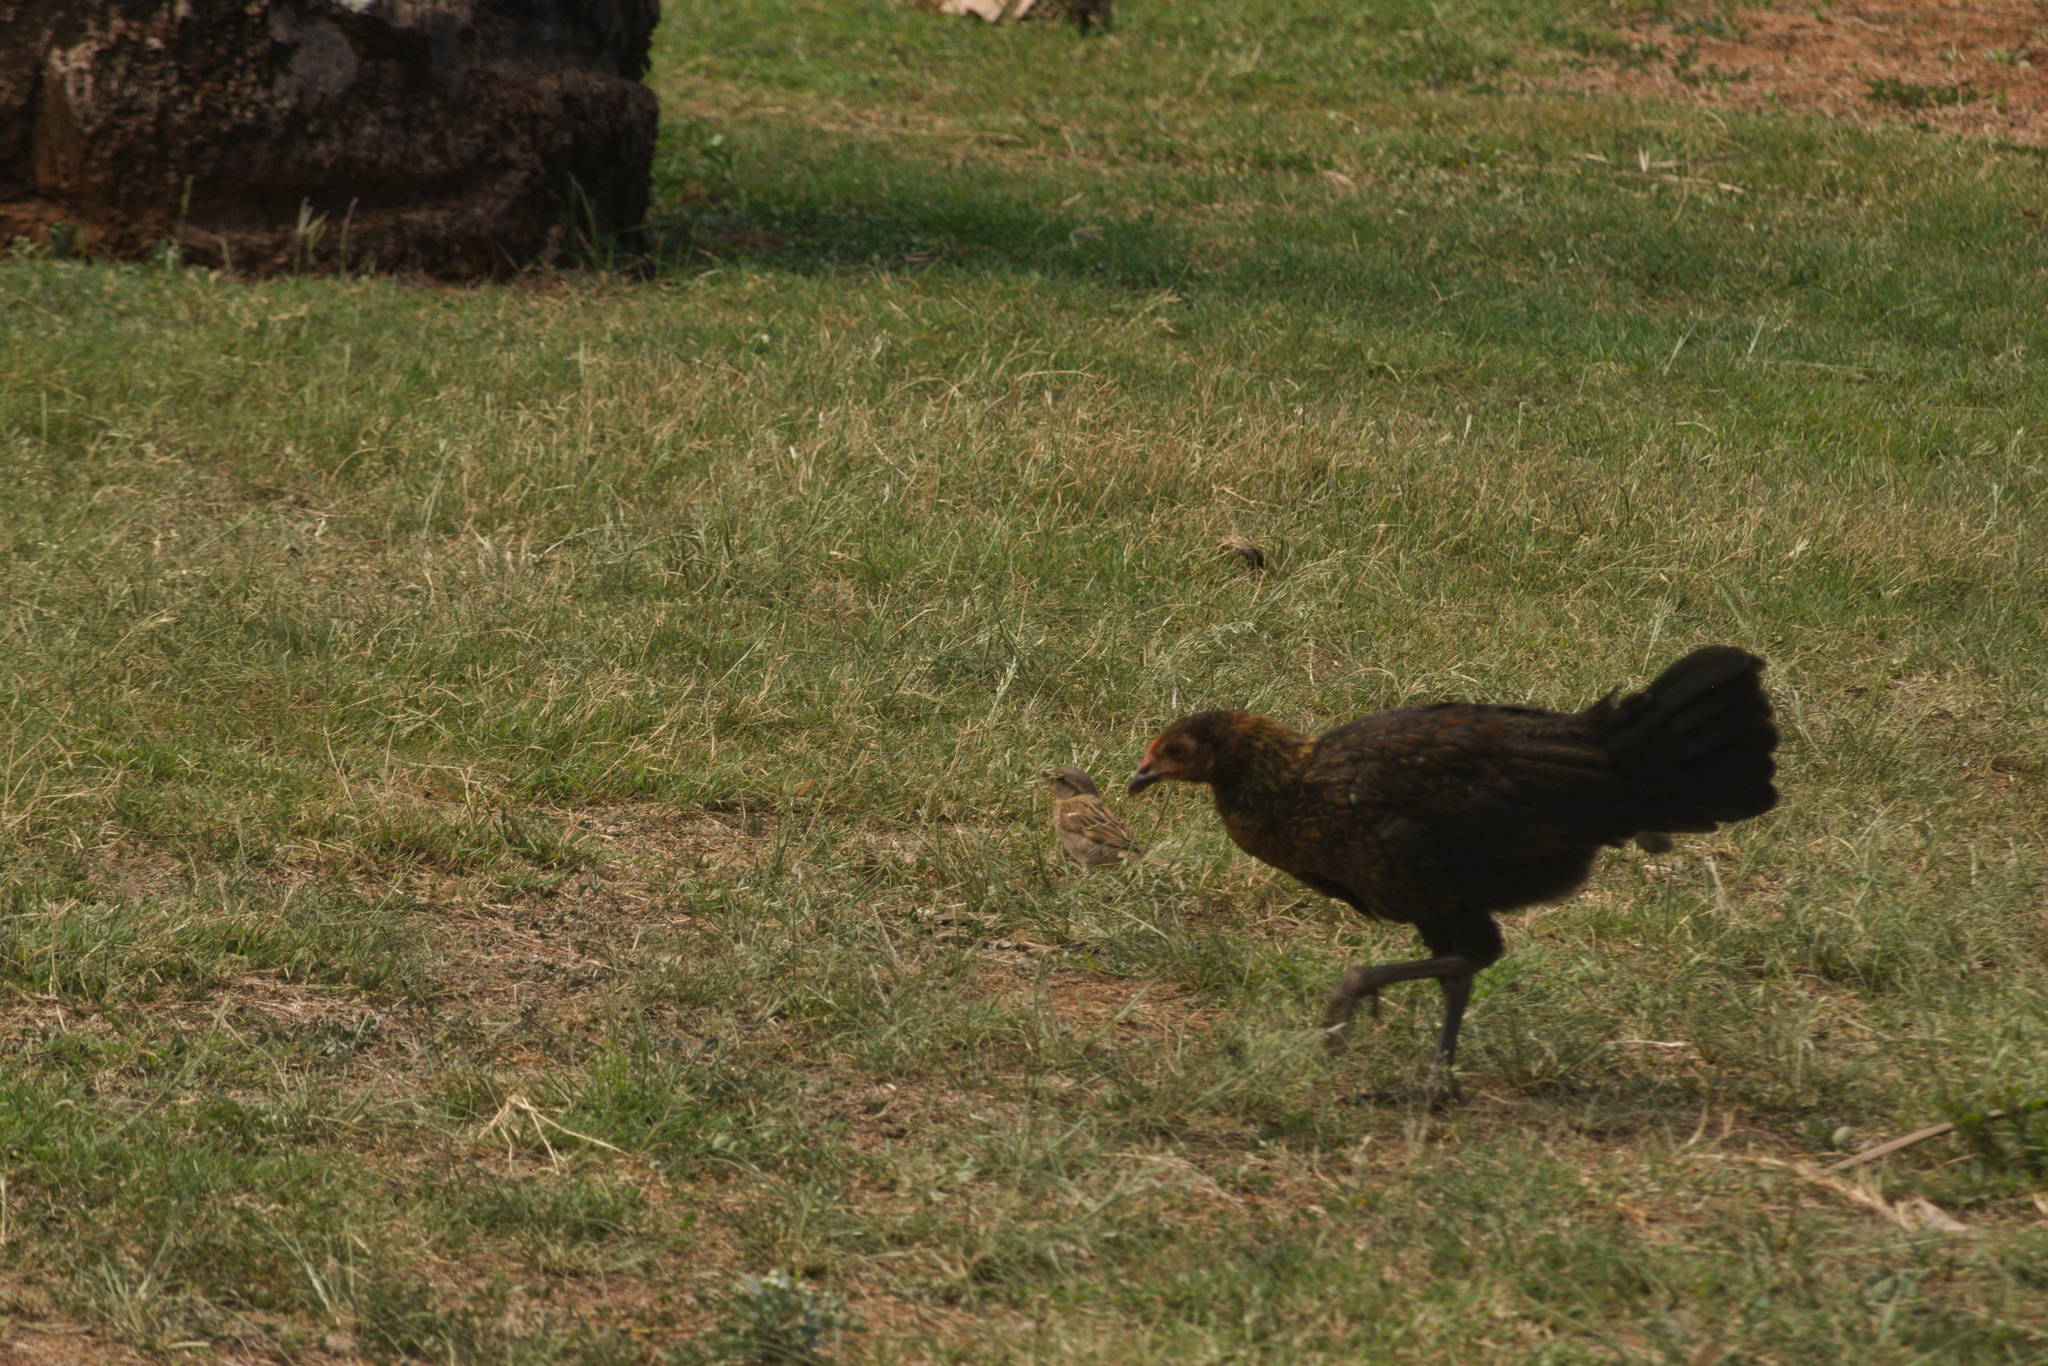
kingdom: Animalia
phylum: Chordata
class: Aves
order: Galliformes
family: Phasianidae
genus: Gallus
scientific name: Gallus gallus
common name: Red junglefowl
